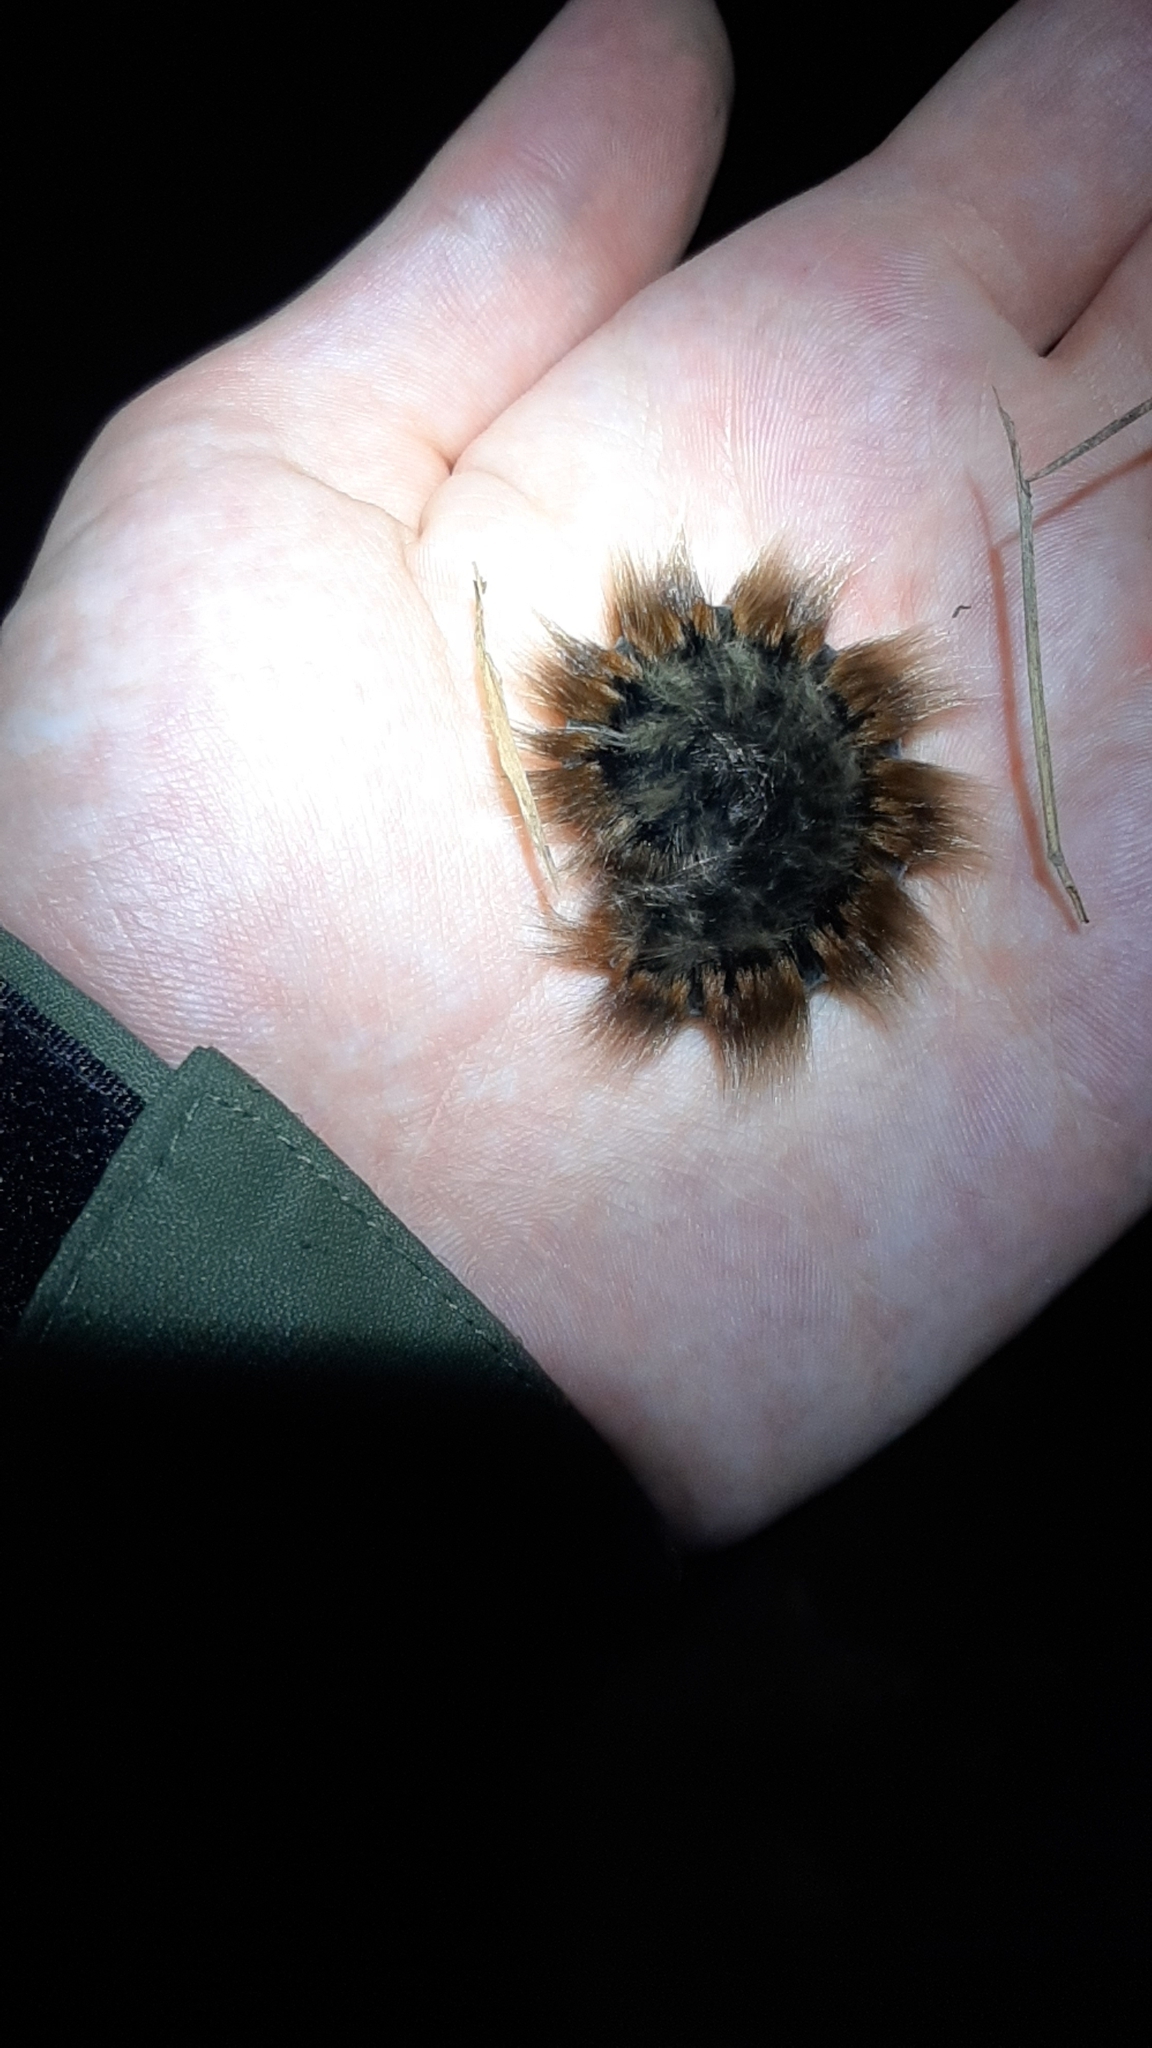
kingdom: Animalia
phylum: Arthropoda
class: Insecta
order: Lepidoptera
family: Lasiocampidae
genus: Macrothylacia
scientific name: Macrothylacia rubi
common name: Fox moth
